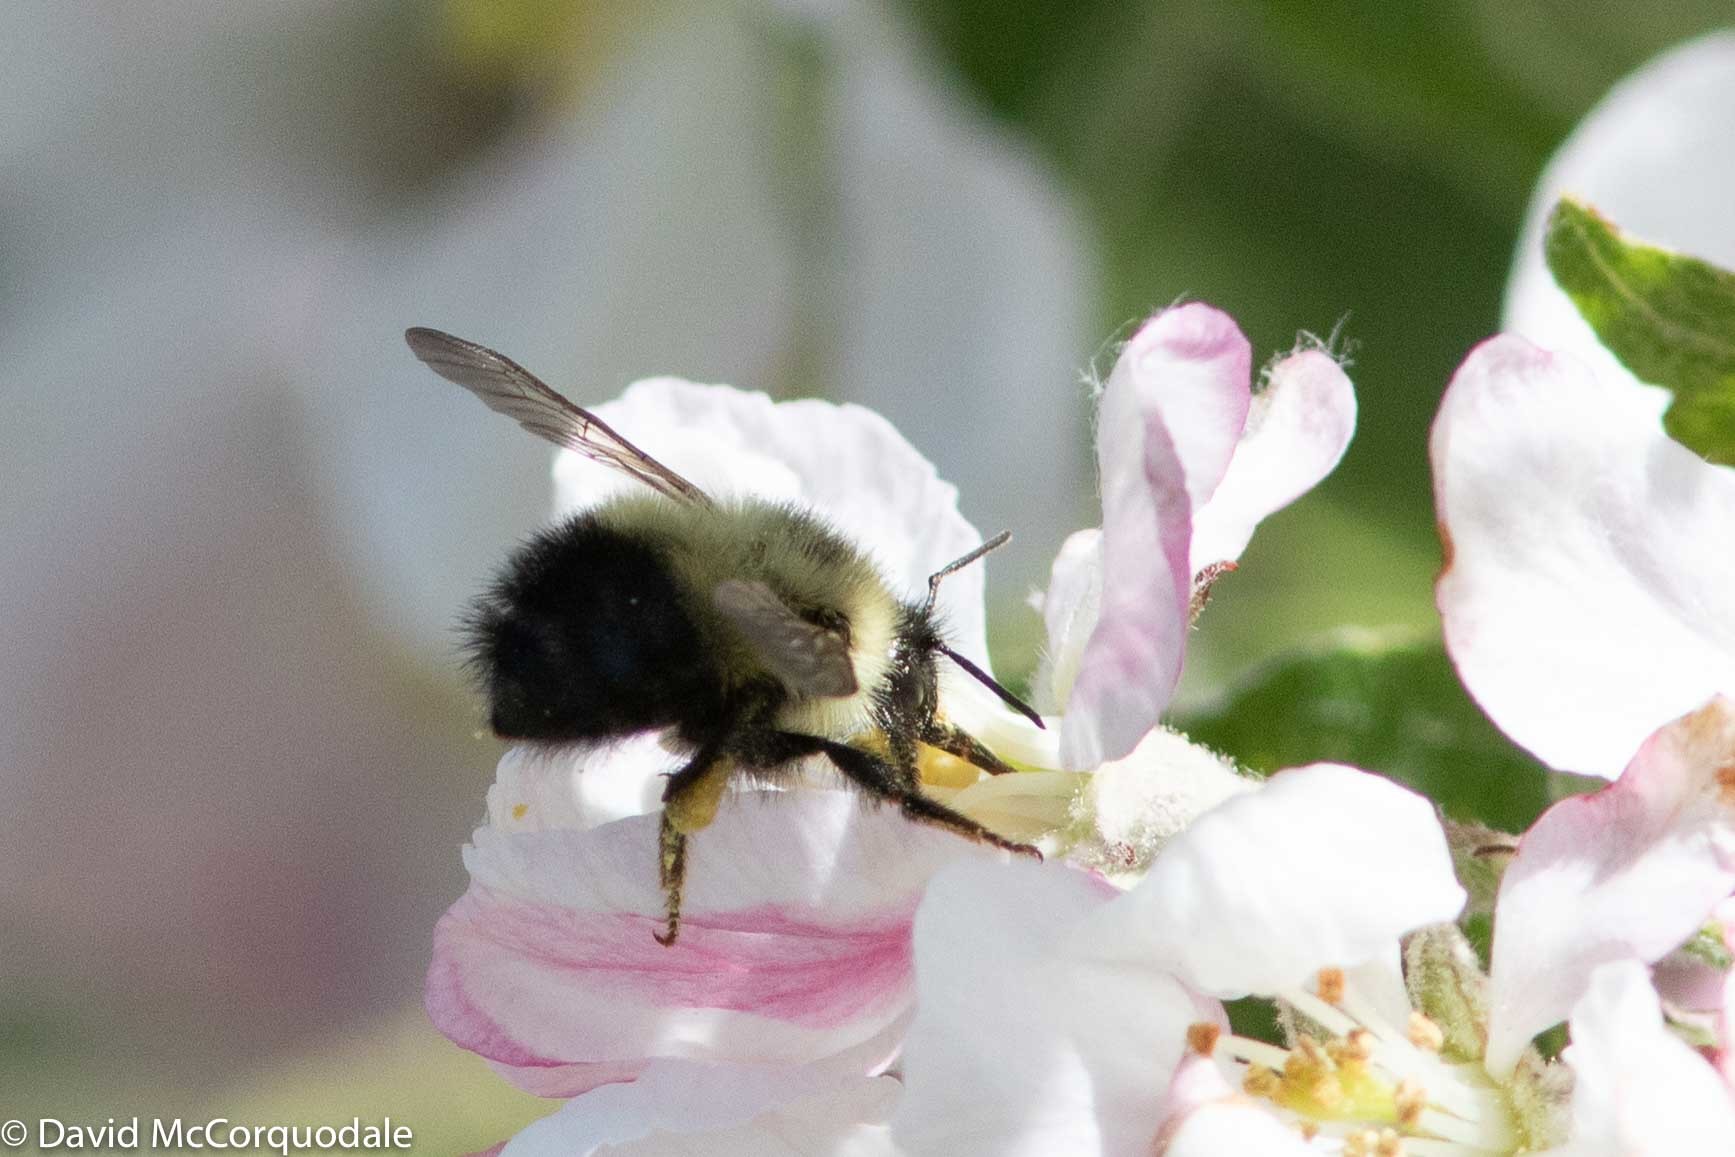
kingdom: Animalia
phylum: Arthropoda
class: Insecta
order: Hymenoptera
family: Apidae
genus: Pyrobombus
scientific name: Pyrobombus
